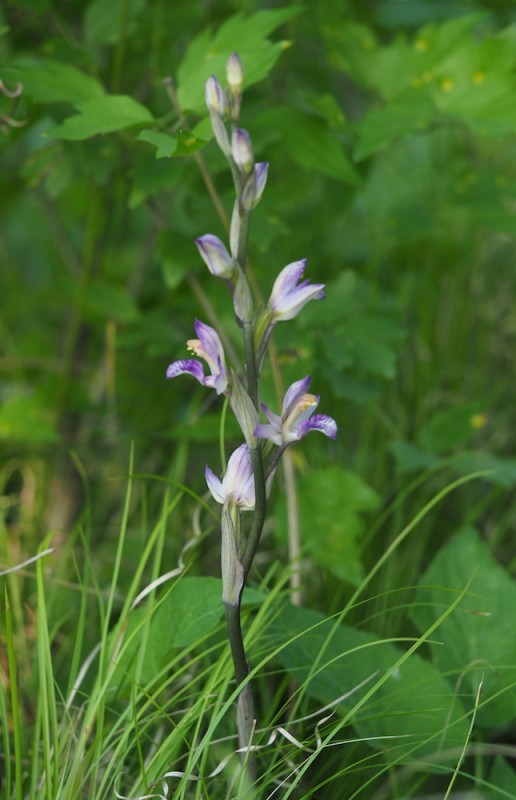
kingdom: Plantae
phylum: Tracheophyta
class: Liliopsida
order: Asparagales
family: Orchidaceae
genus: Limodorum
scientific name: Limodorum abortivum
